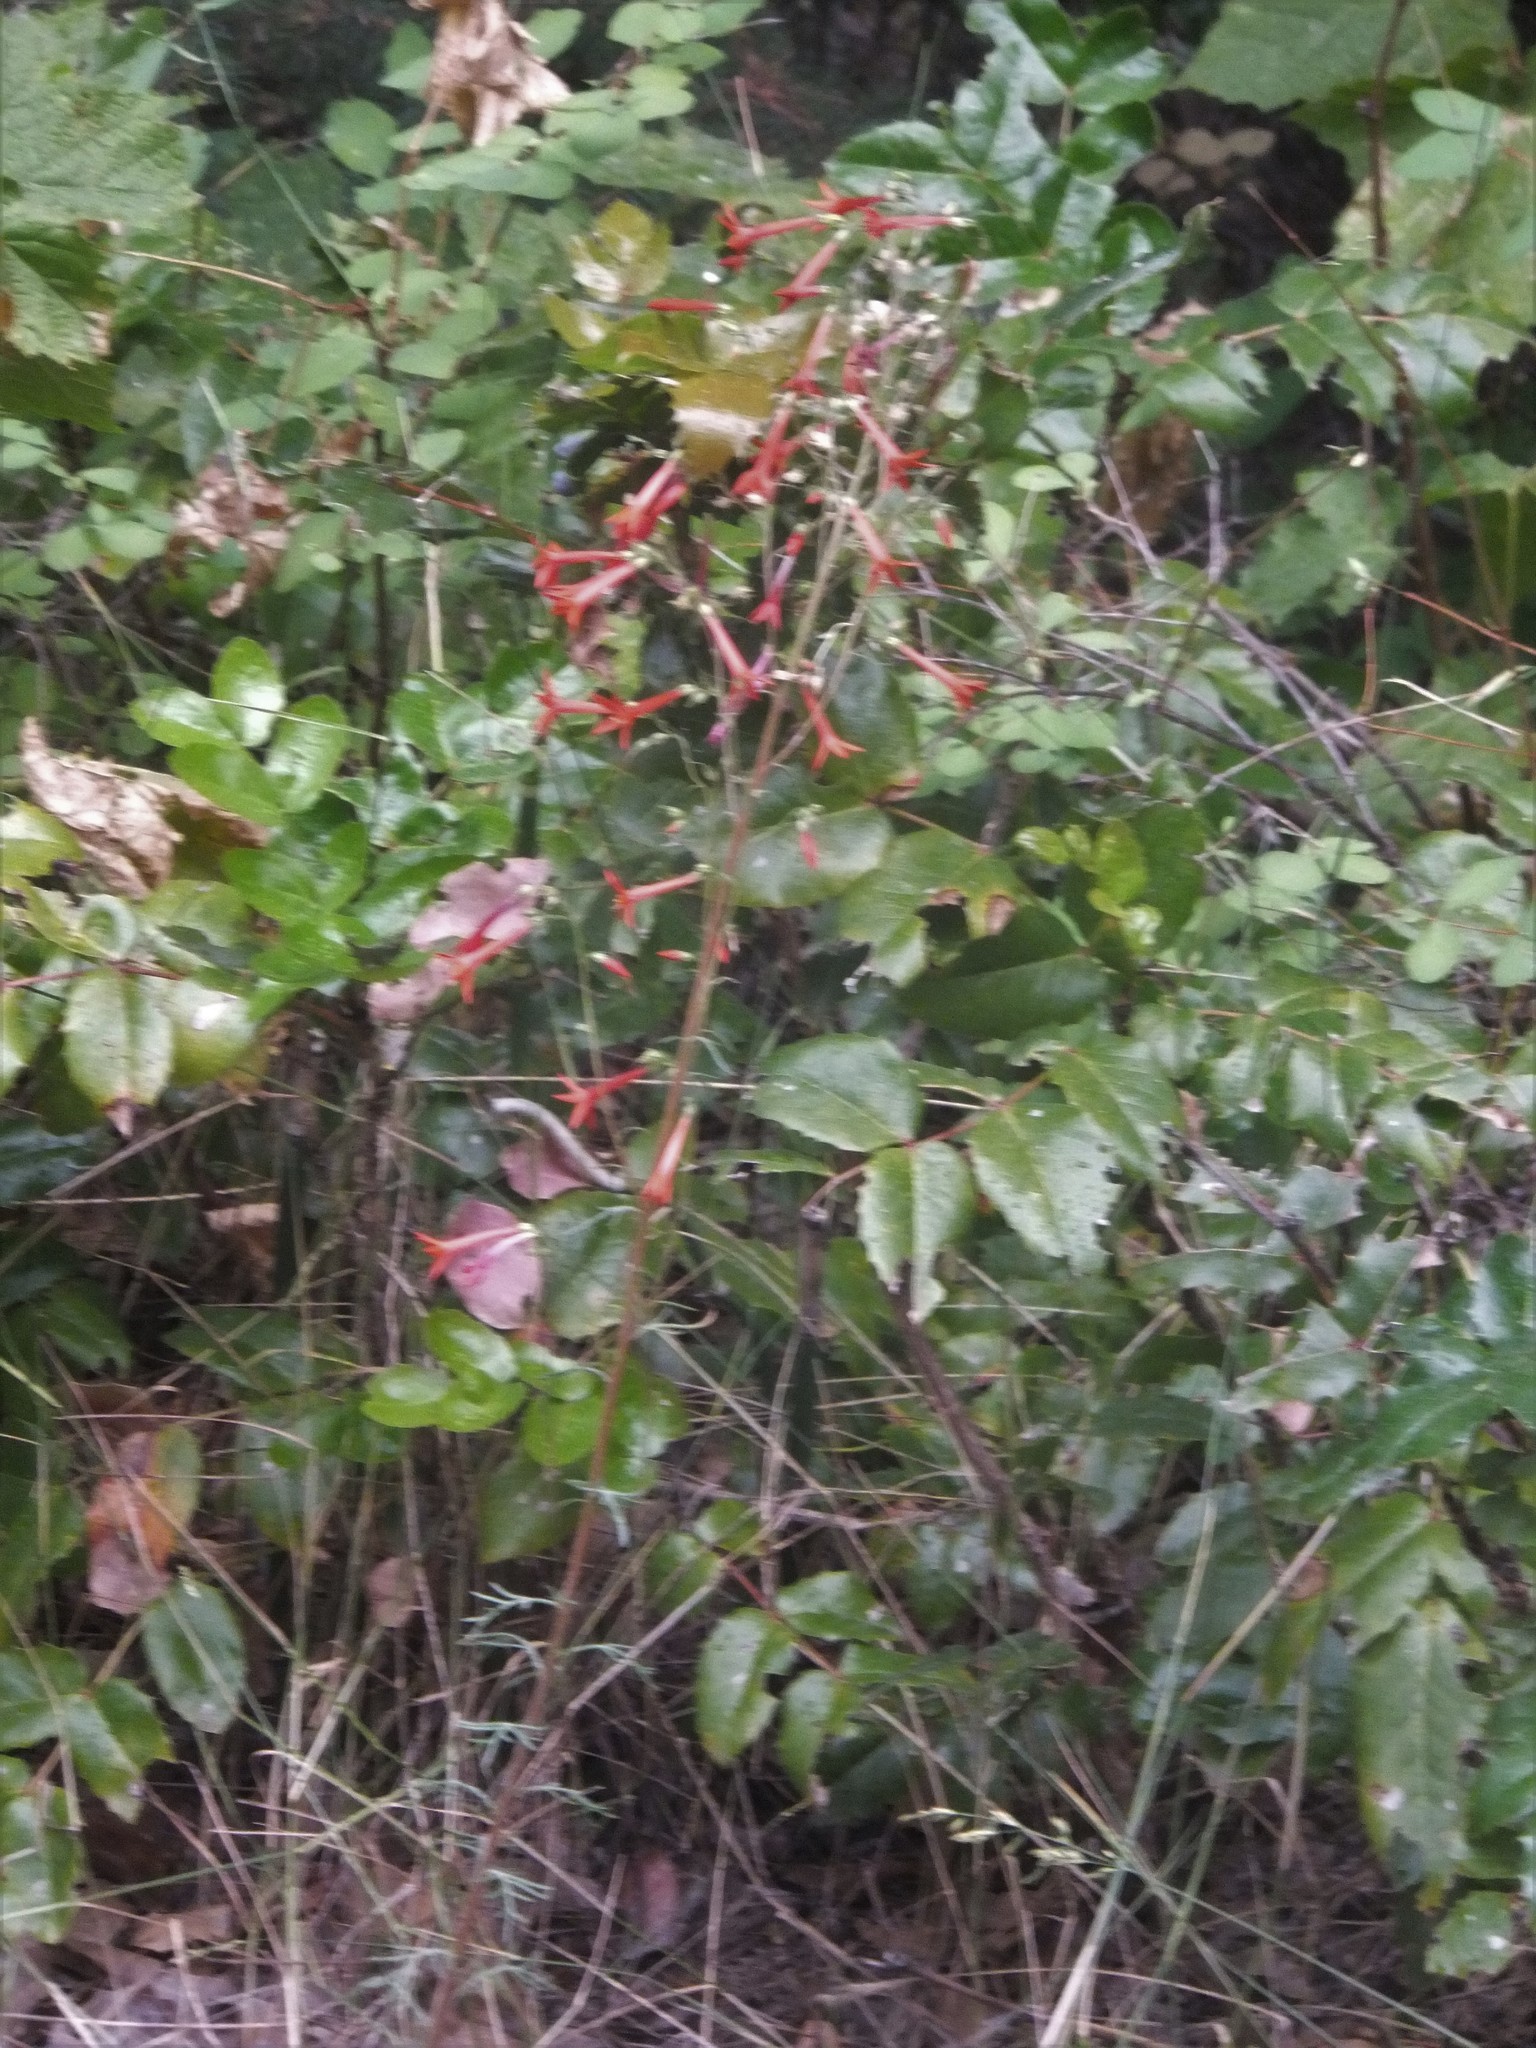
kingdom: Plantae
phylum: Tracheophyta
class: Magnoliopsida
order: Ericales
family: Polemoniaceae
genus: Ipomopsis
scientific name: Ipomopsis aggregata
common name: Scarlet gilia
